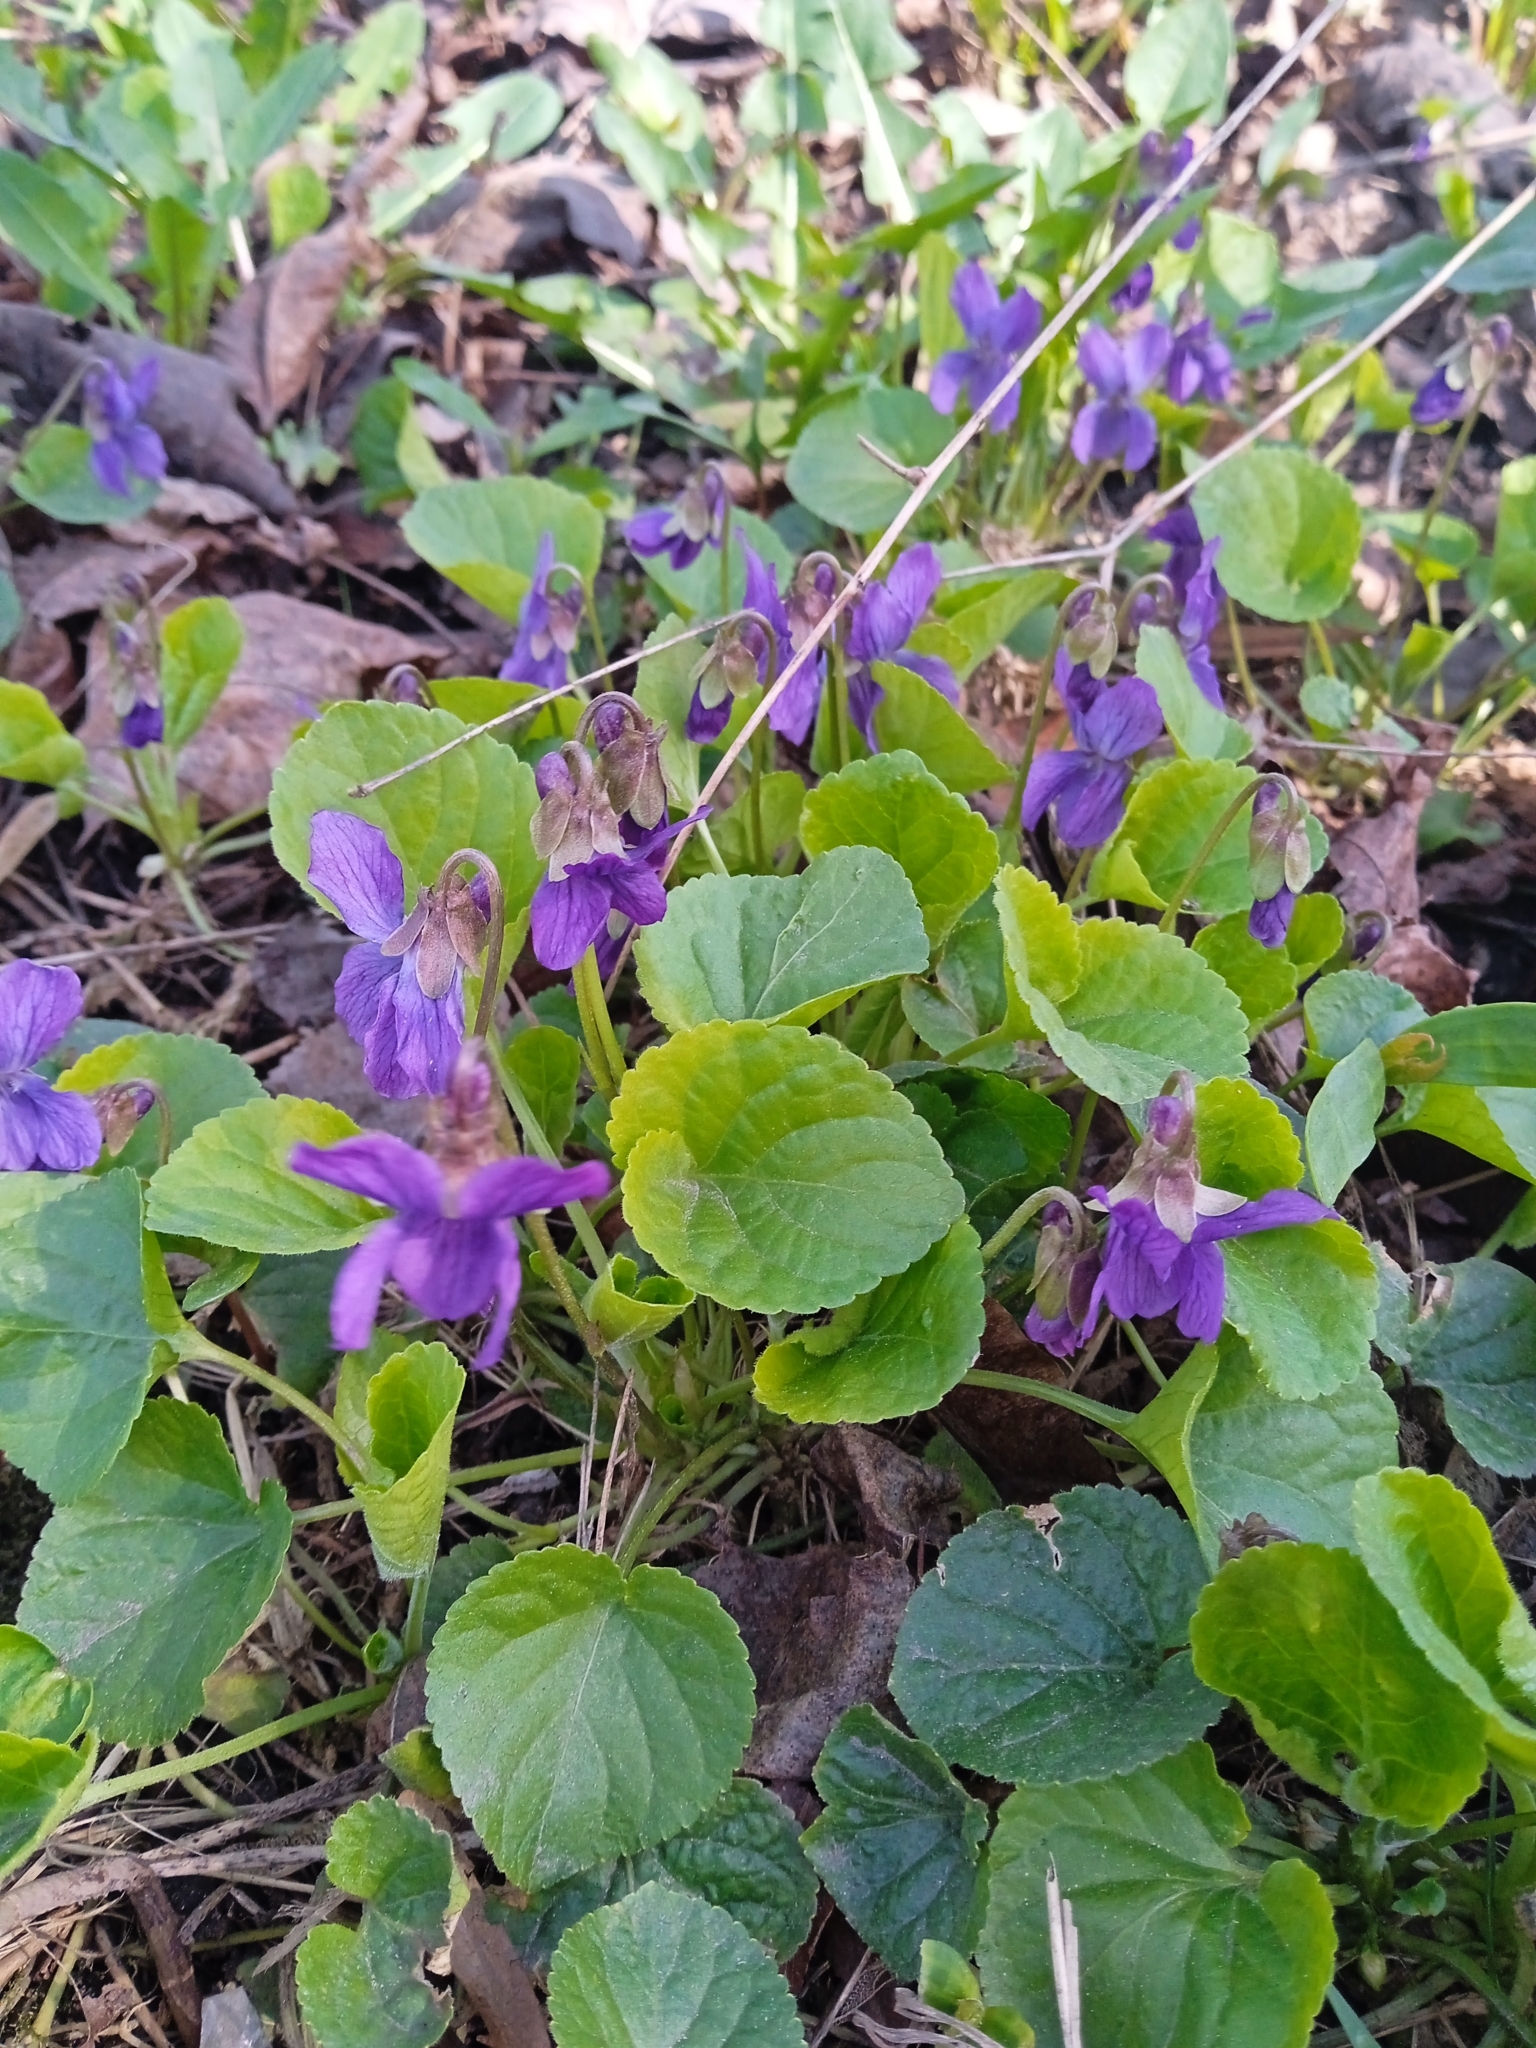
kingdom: Plantae
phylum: Tracheophyta
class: Magnoliopsida
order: Malpighiales
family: Violaceae
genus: Viola
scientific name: Viola odorata
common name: Sweet violet
